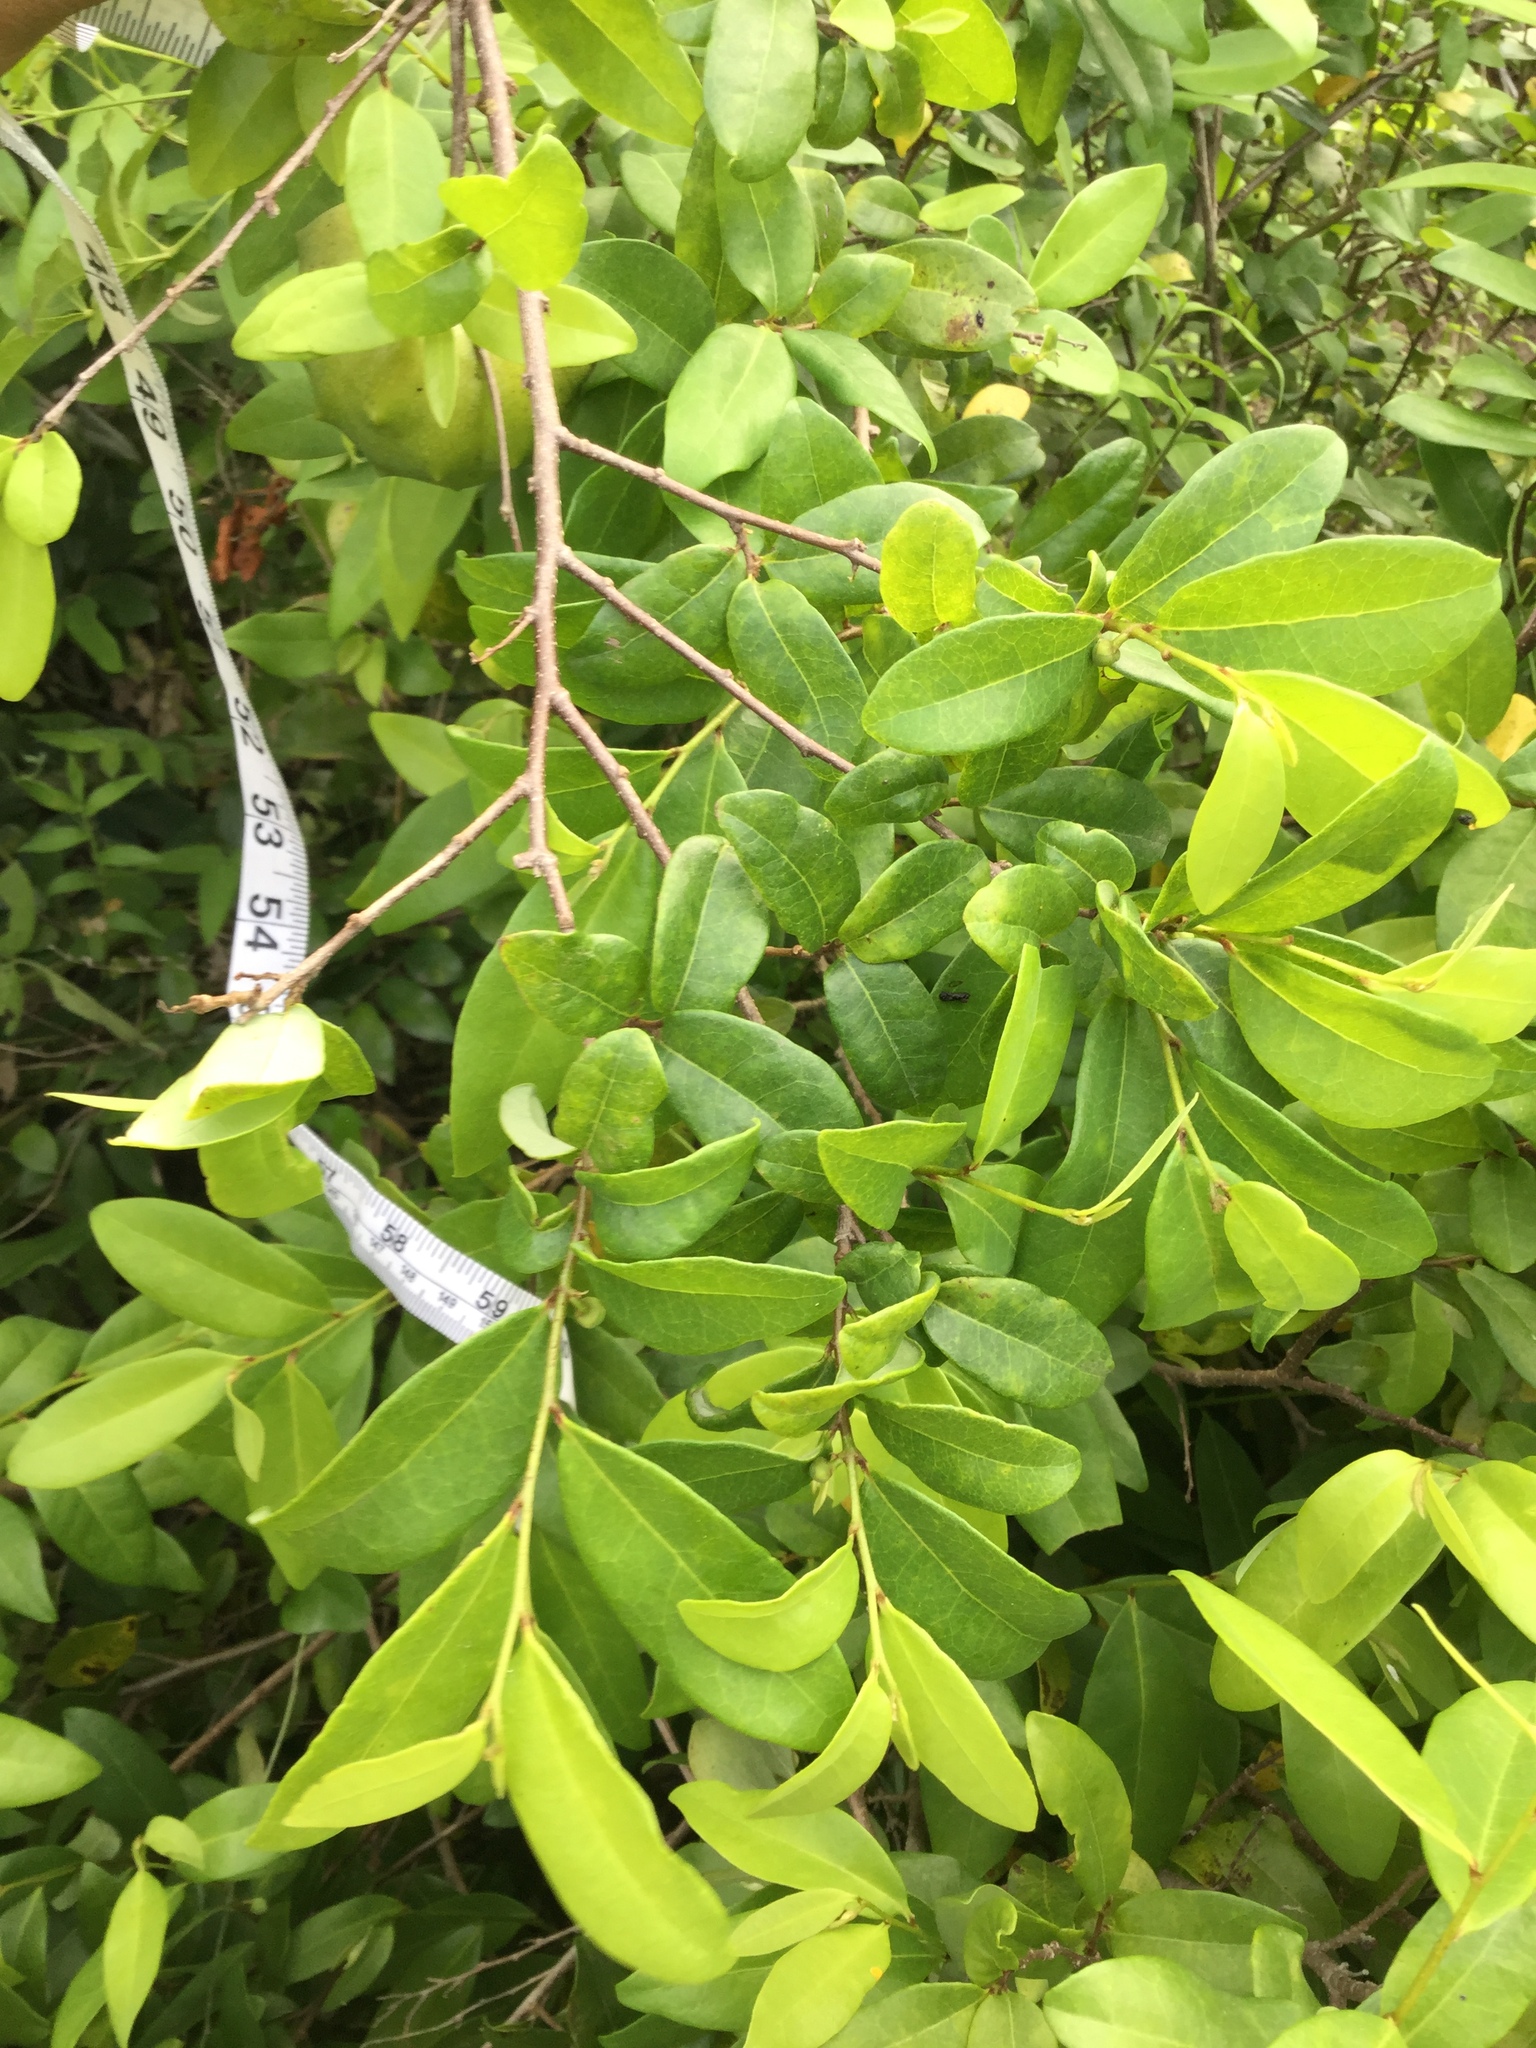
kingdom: Plantae
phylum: Tracheophyta
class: Magnoliopsida
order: Magnoliales
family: Annonaceae
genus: Annona
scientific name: Annona globiflora
